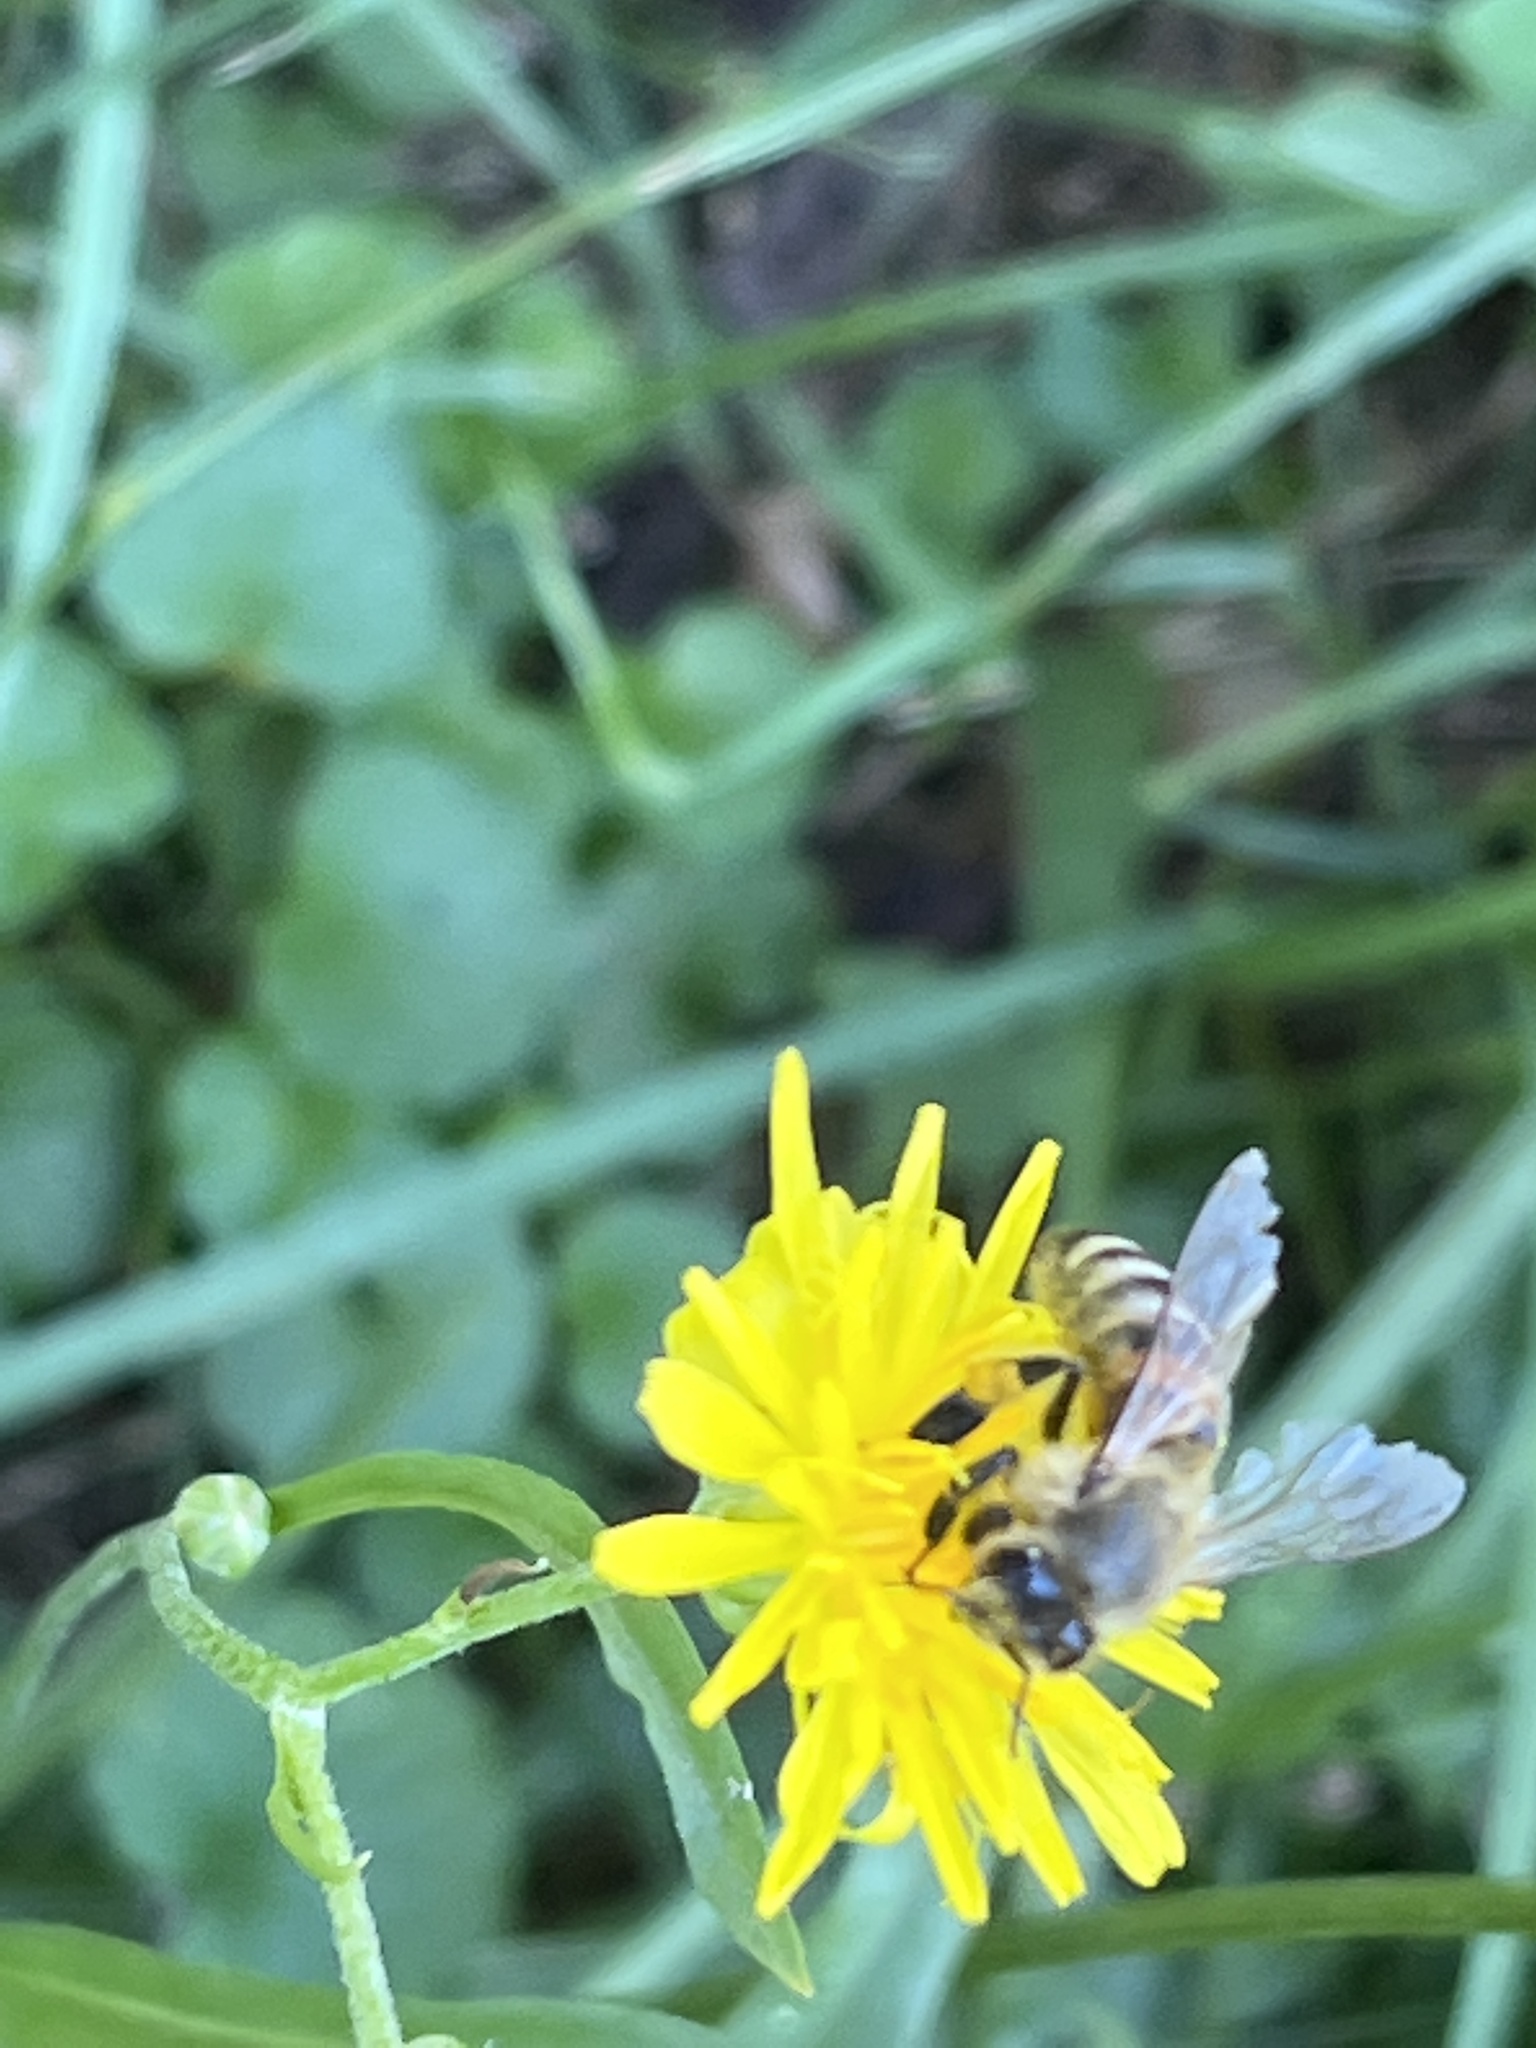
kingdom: Animalia
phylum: Arthropoda
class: Insecta
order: Hymenoptera
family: Apidae
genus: Apis
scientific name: Apis mellifera
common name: Honey bee
